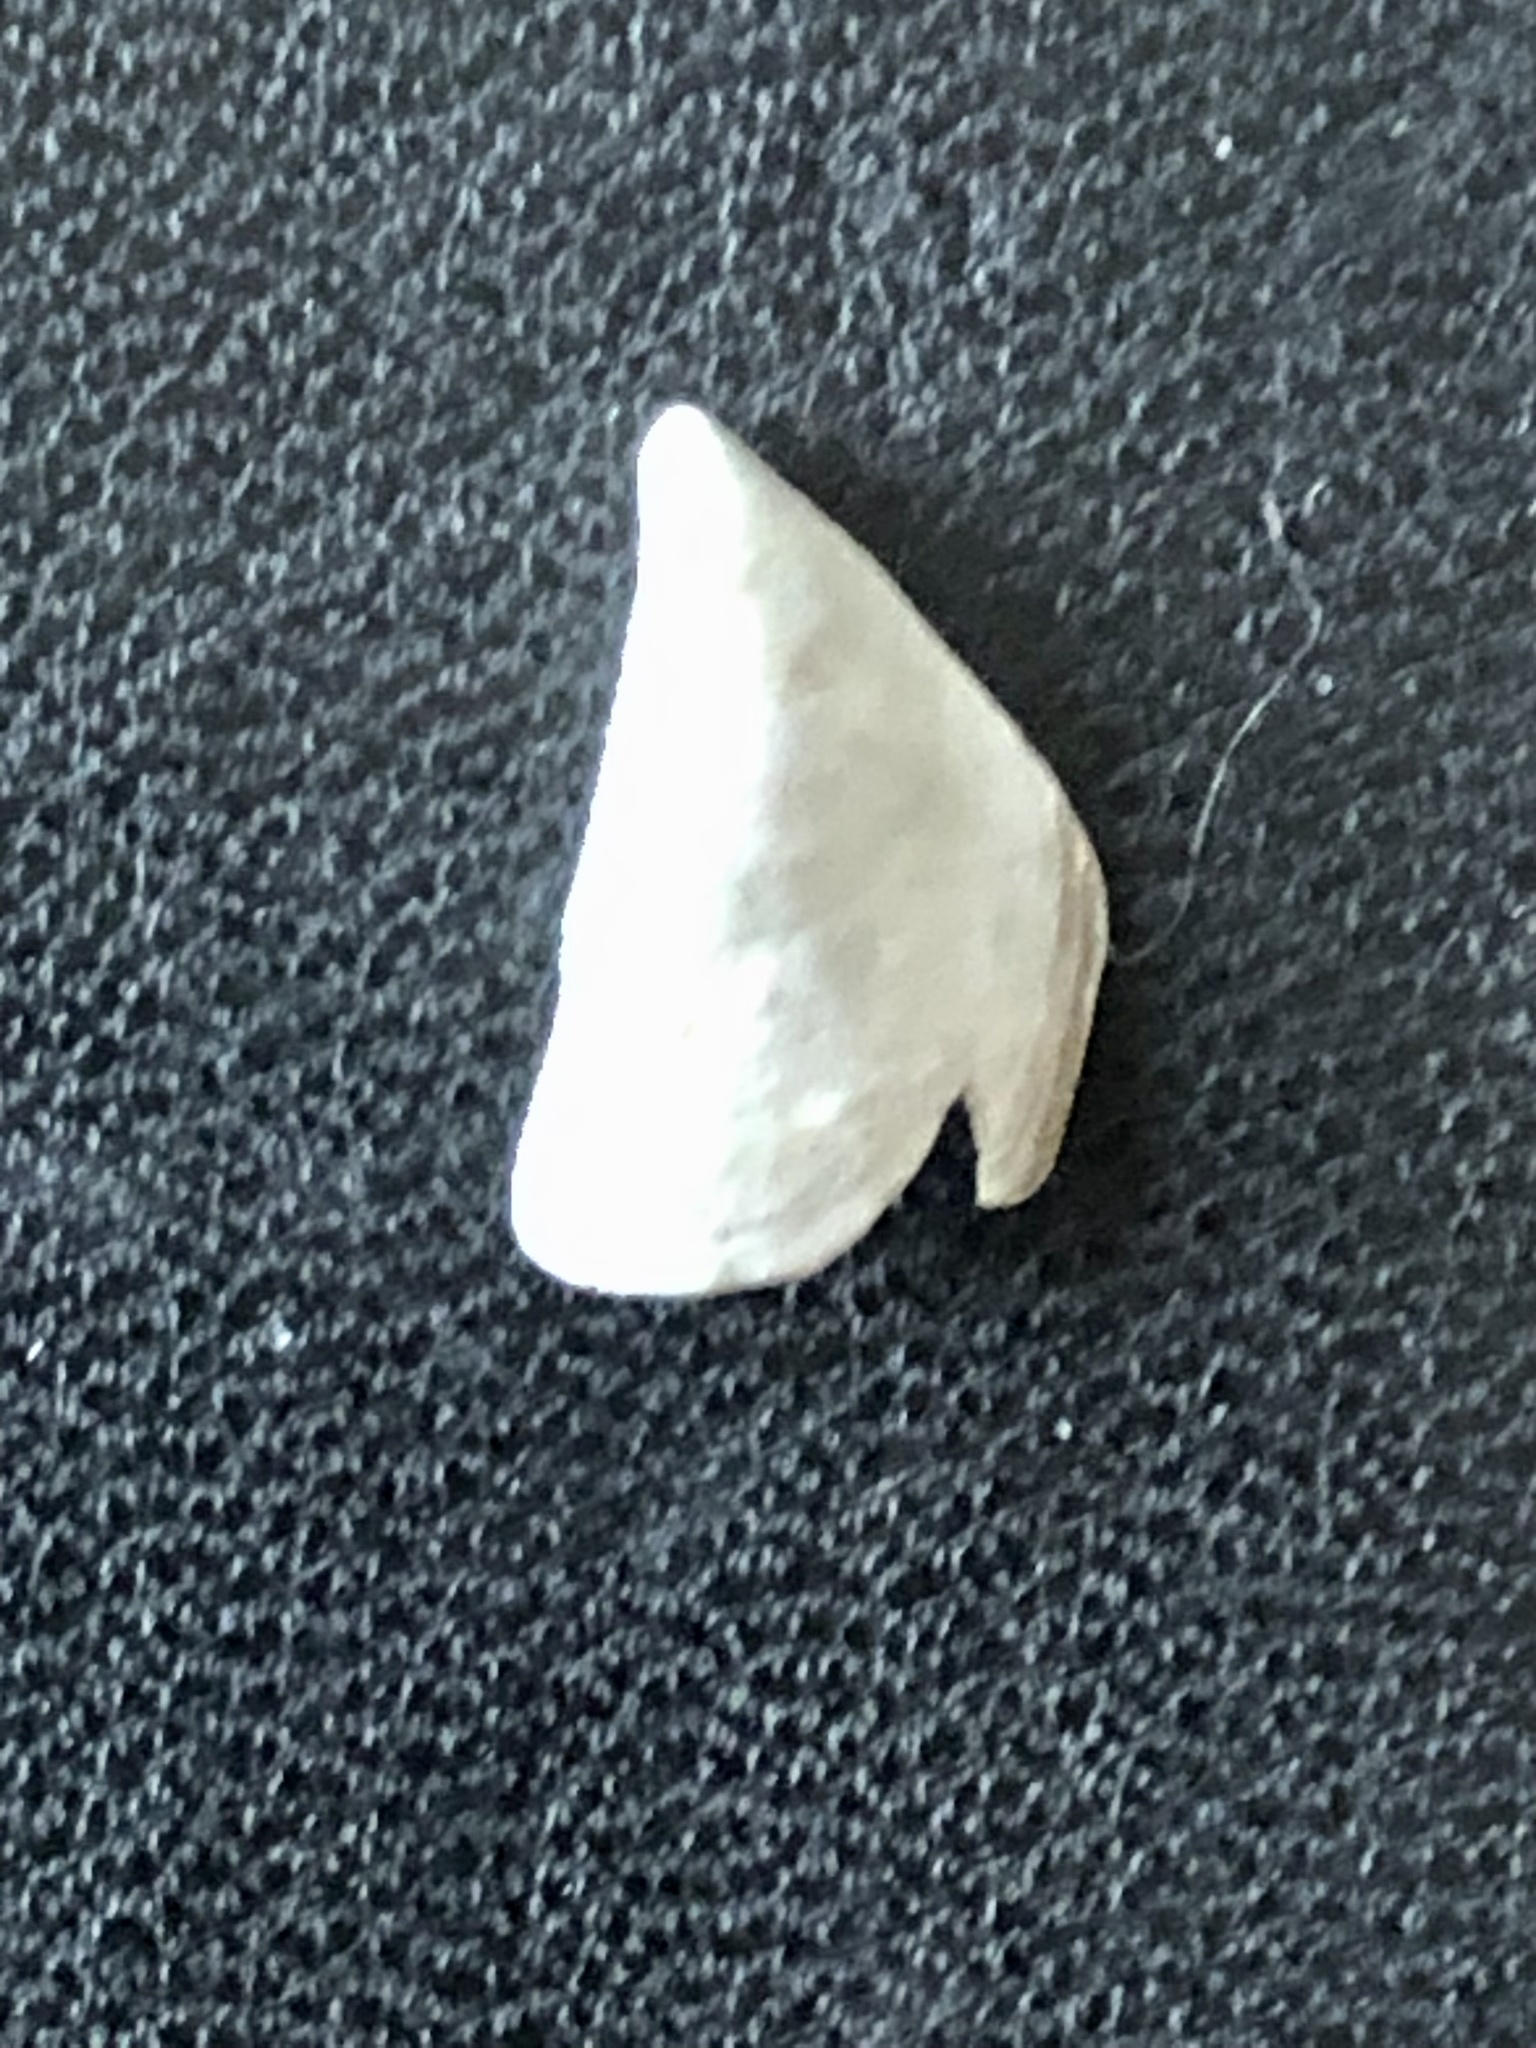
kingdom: Animalia
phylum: Mollusca
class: Bivalvia
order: Myida
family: Dreissenidae
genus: Dreissena
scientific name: Dreissena polymorpha
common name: Zebra mussel
